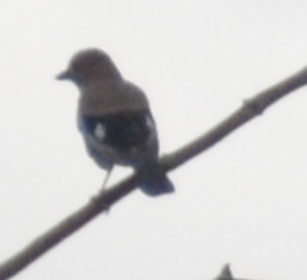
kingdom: Animalia
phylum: Chordata
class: Aves
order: Passeriformes
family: Corvidae
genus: Garrulus
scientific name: Garrulus glandarius
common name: Eurasian jay
